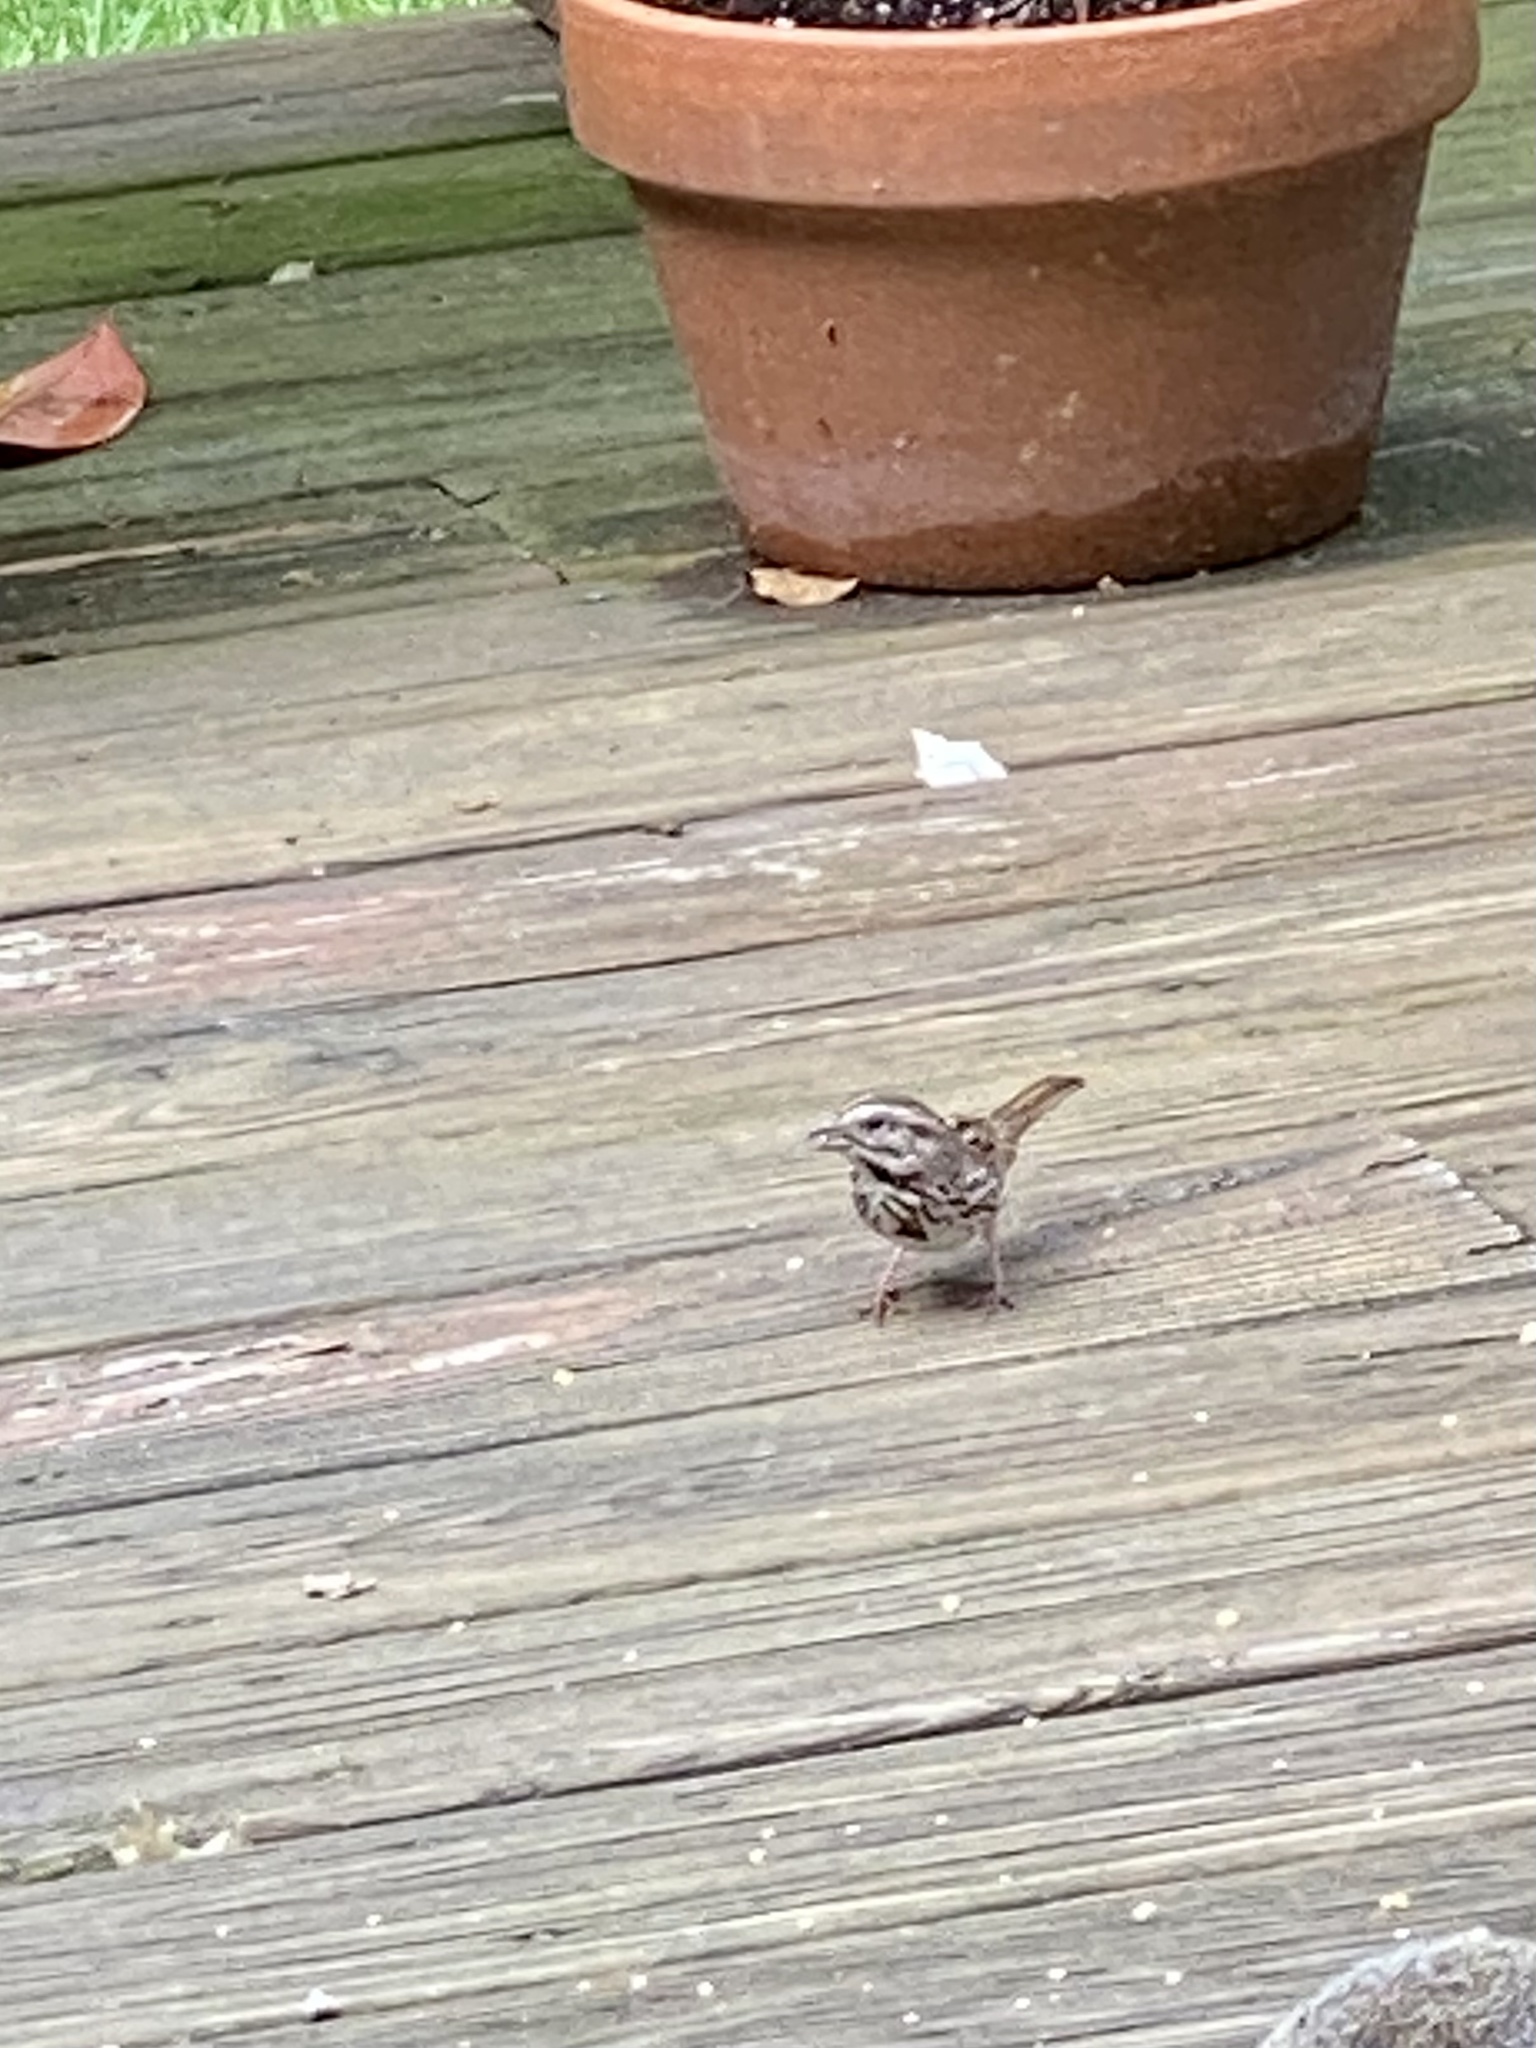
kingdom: Animalia
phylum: Chordata
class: Aves
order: Passeriformes
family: Passerellidae
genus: Melospiza
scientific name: Melospiza melodia
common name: Song sparrow
